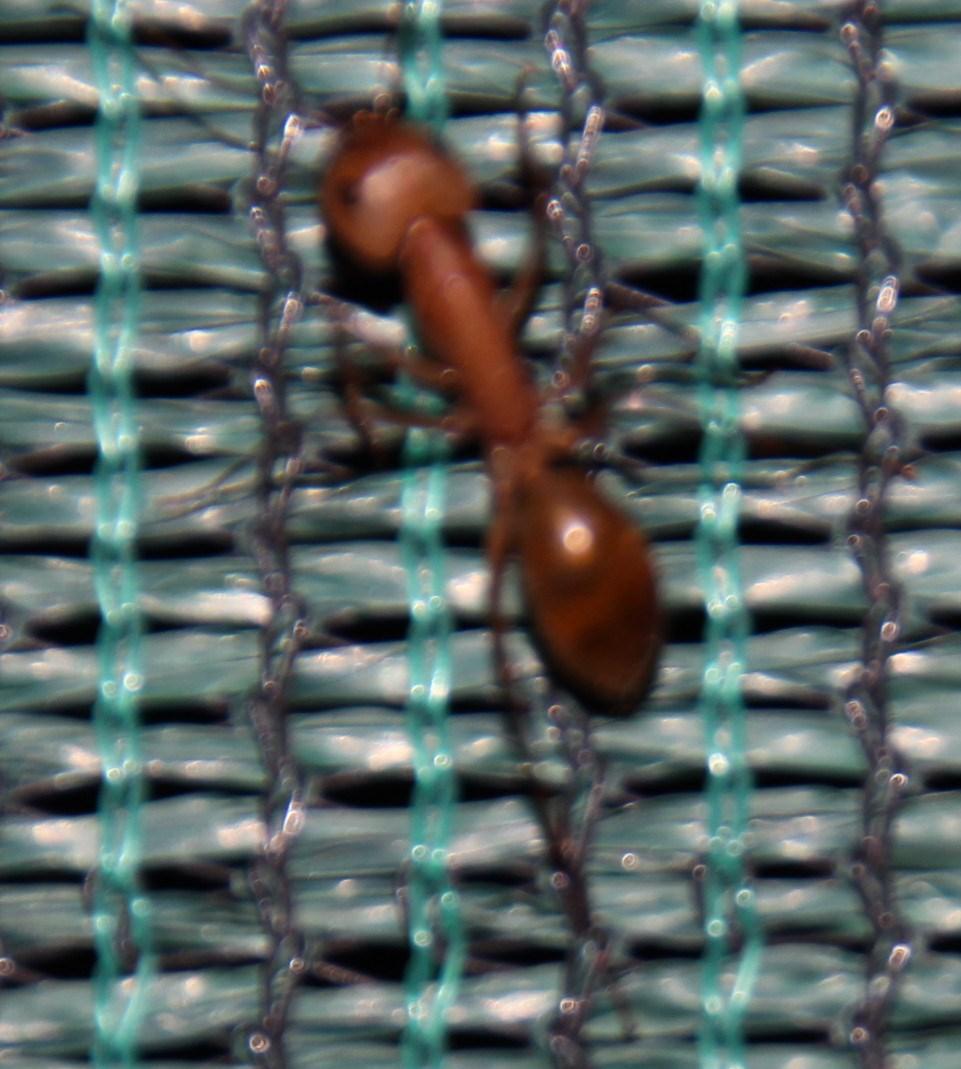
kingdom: Animalia
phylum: Arthropoda
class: Insecta
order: Hymenoptera
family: Formicidae
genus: Camponotus
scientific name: Camponotus cuneiscapus
